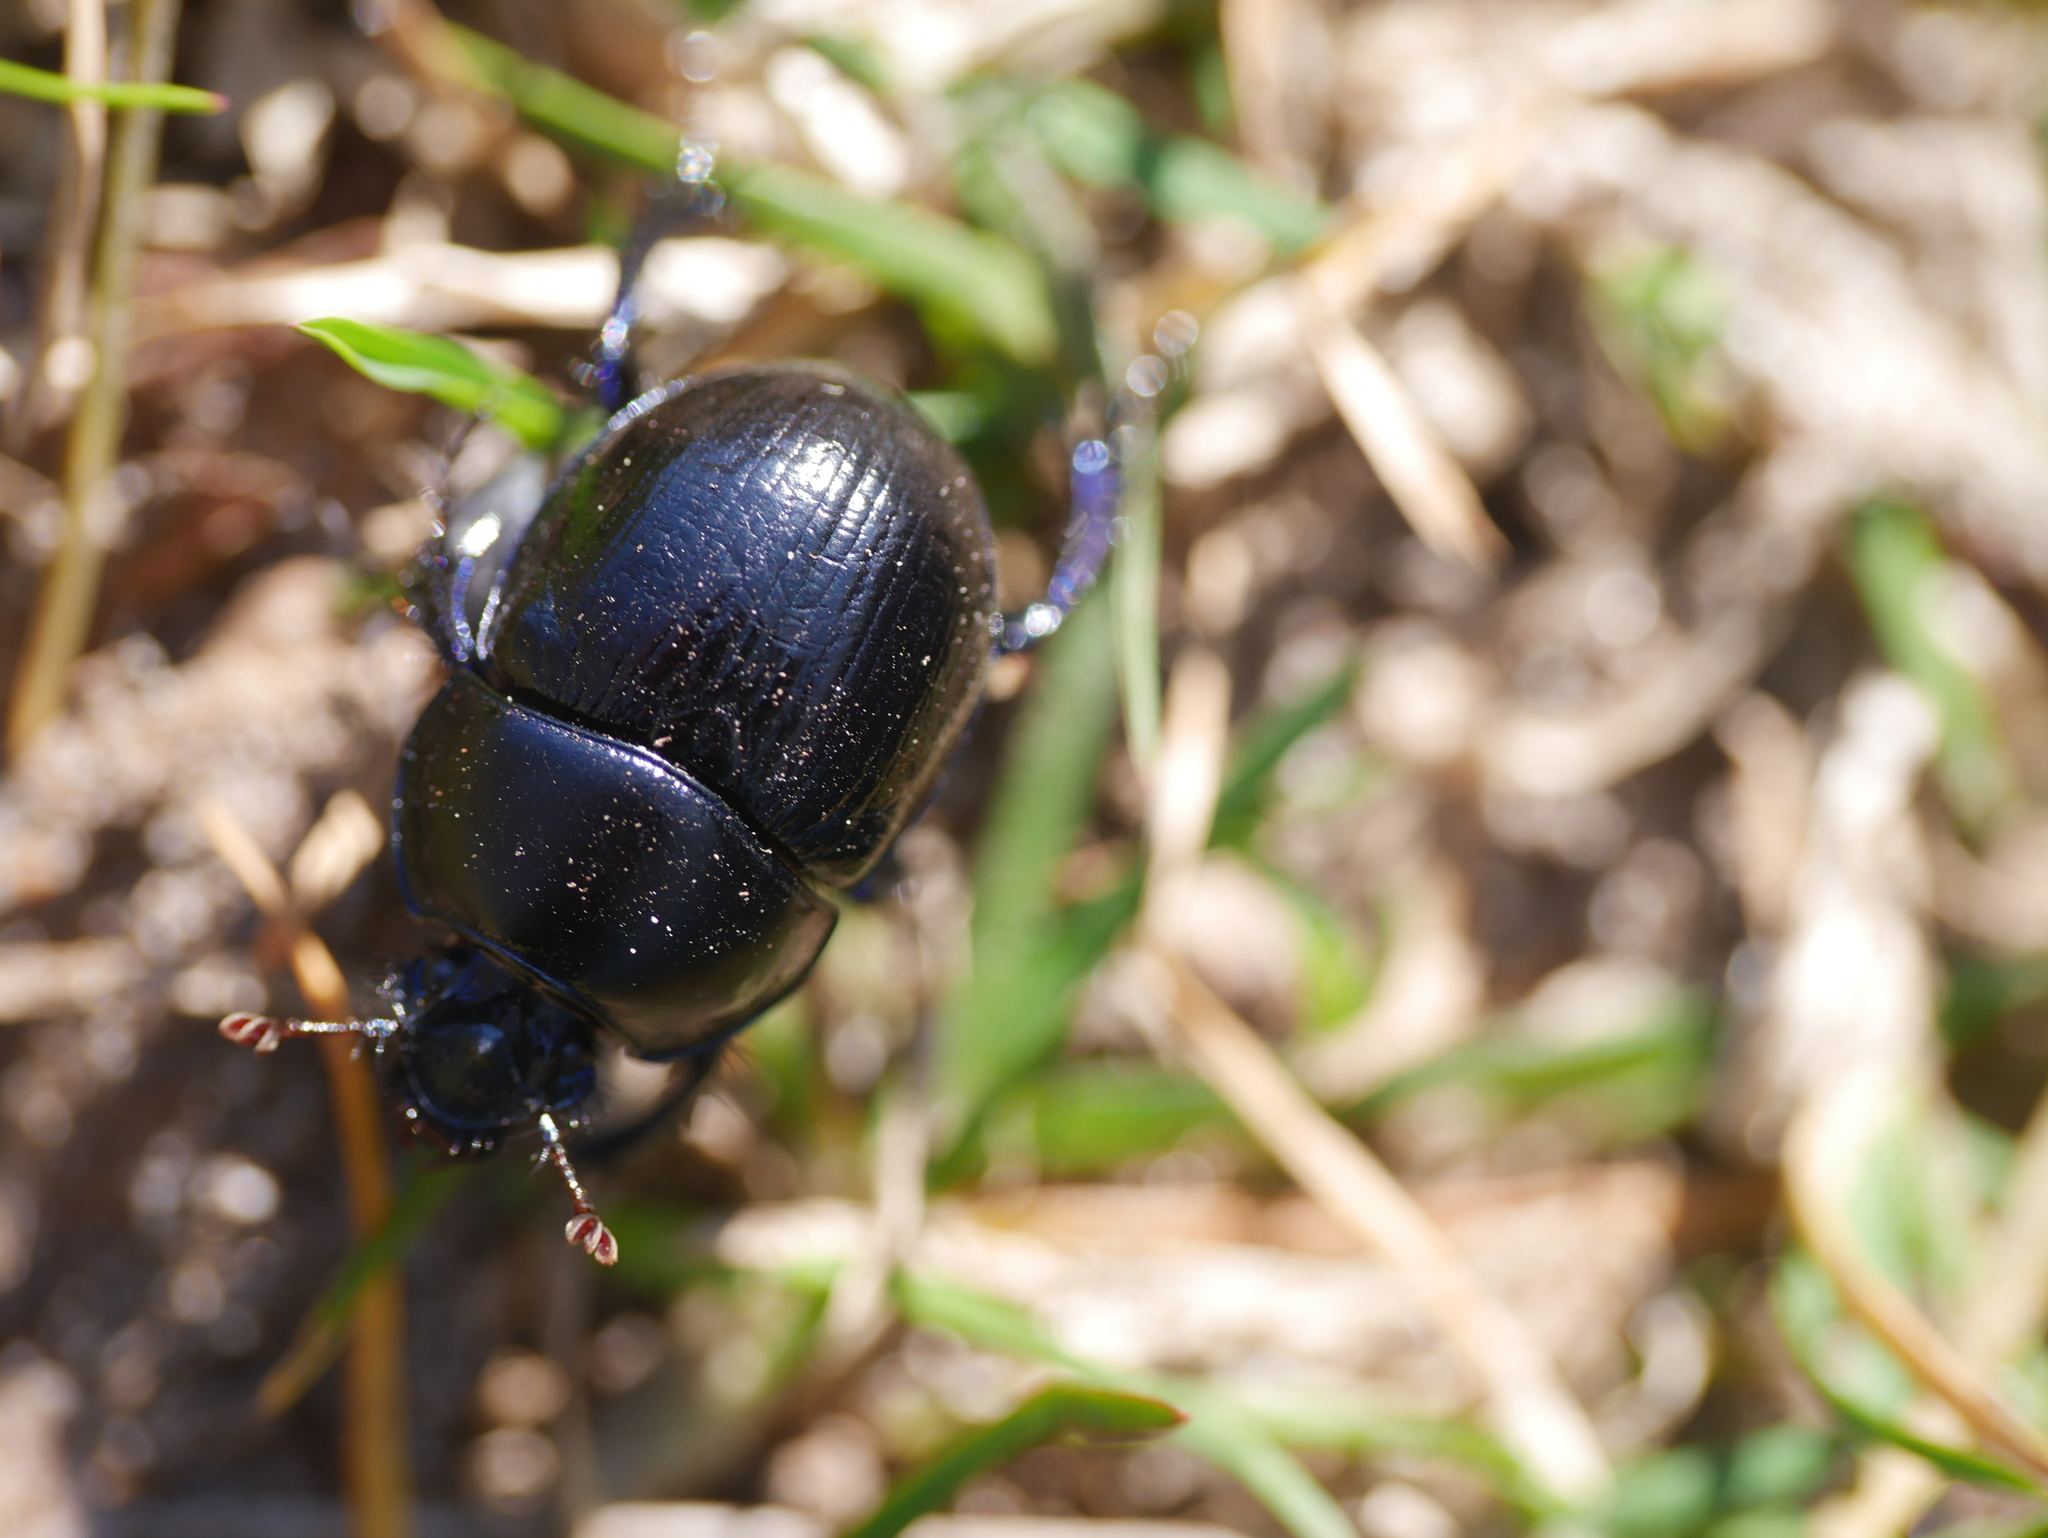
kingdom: Animalia
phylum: Arthropoda
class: Insecta
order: Coleoptera
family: Geotrupidae
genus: Anoplotrupes
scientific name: Anoplotrupes stercorosus
